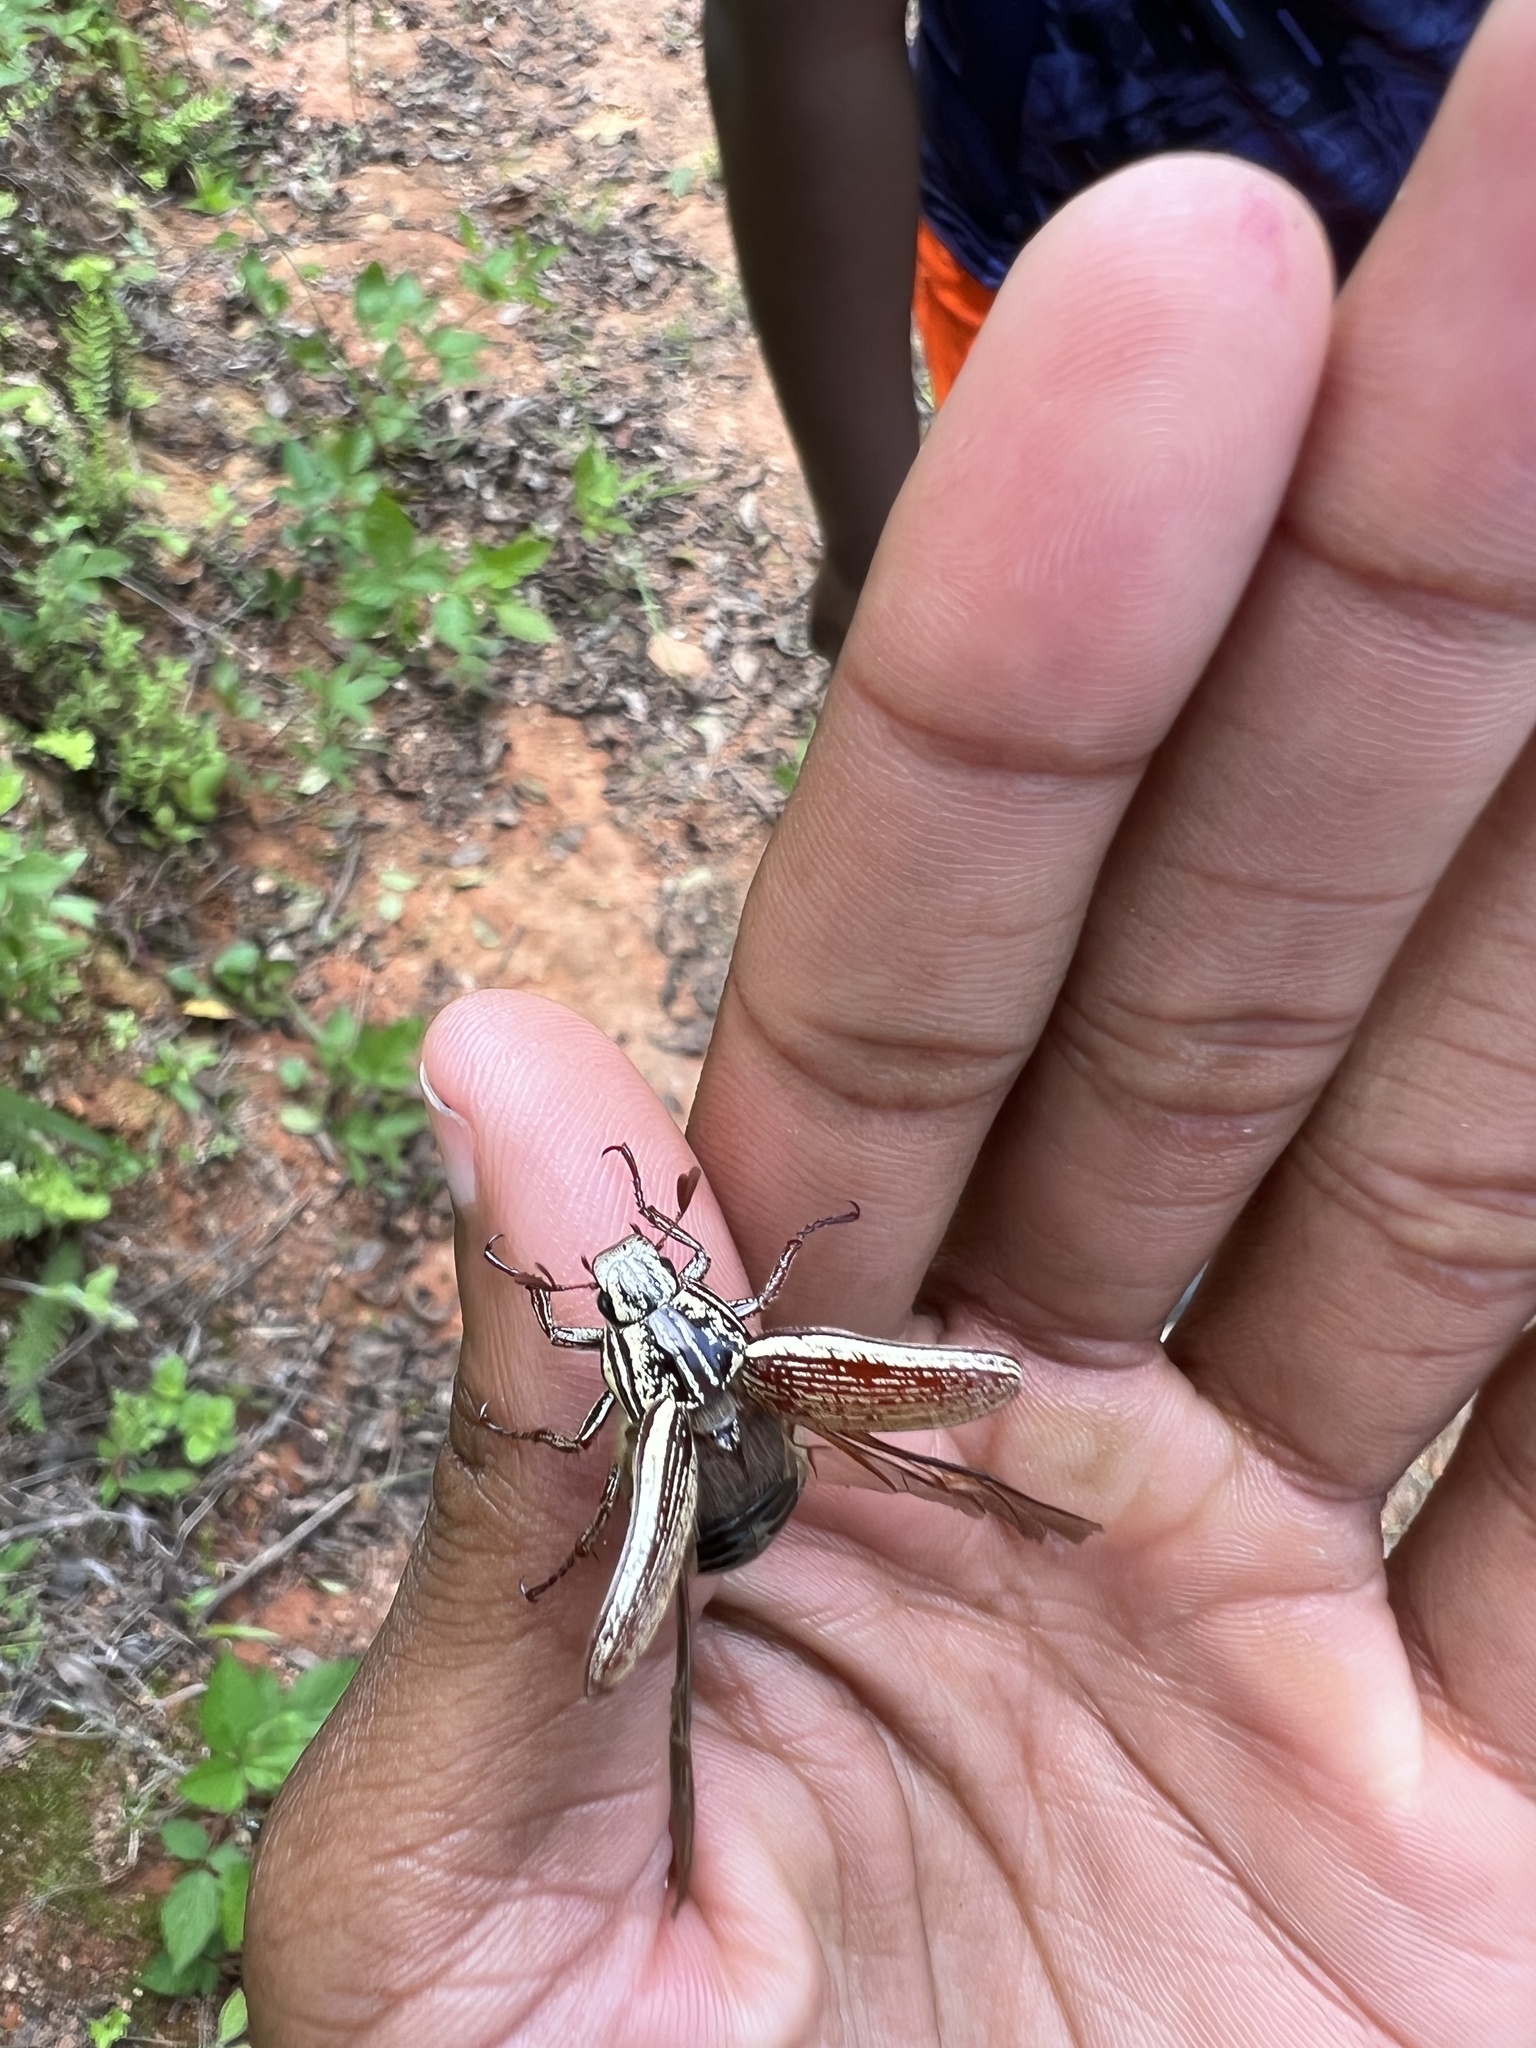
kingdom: Animalia
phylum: Arthropoda
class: Insecta
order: Coleoptera
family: Scarabaeidae
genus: Rhabdopholis
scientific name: Rhabdopholis robertsi
